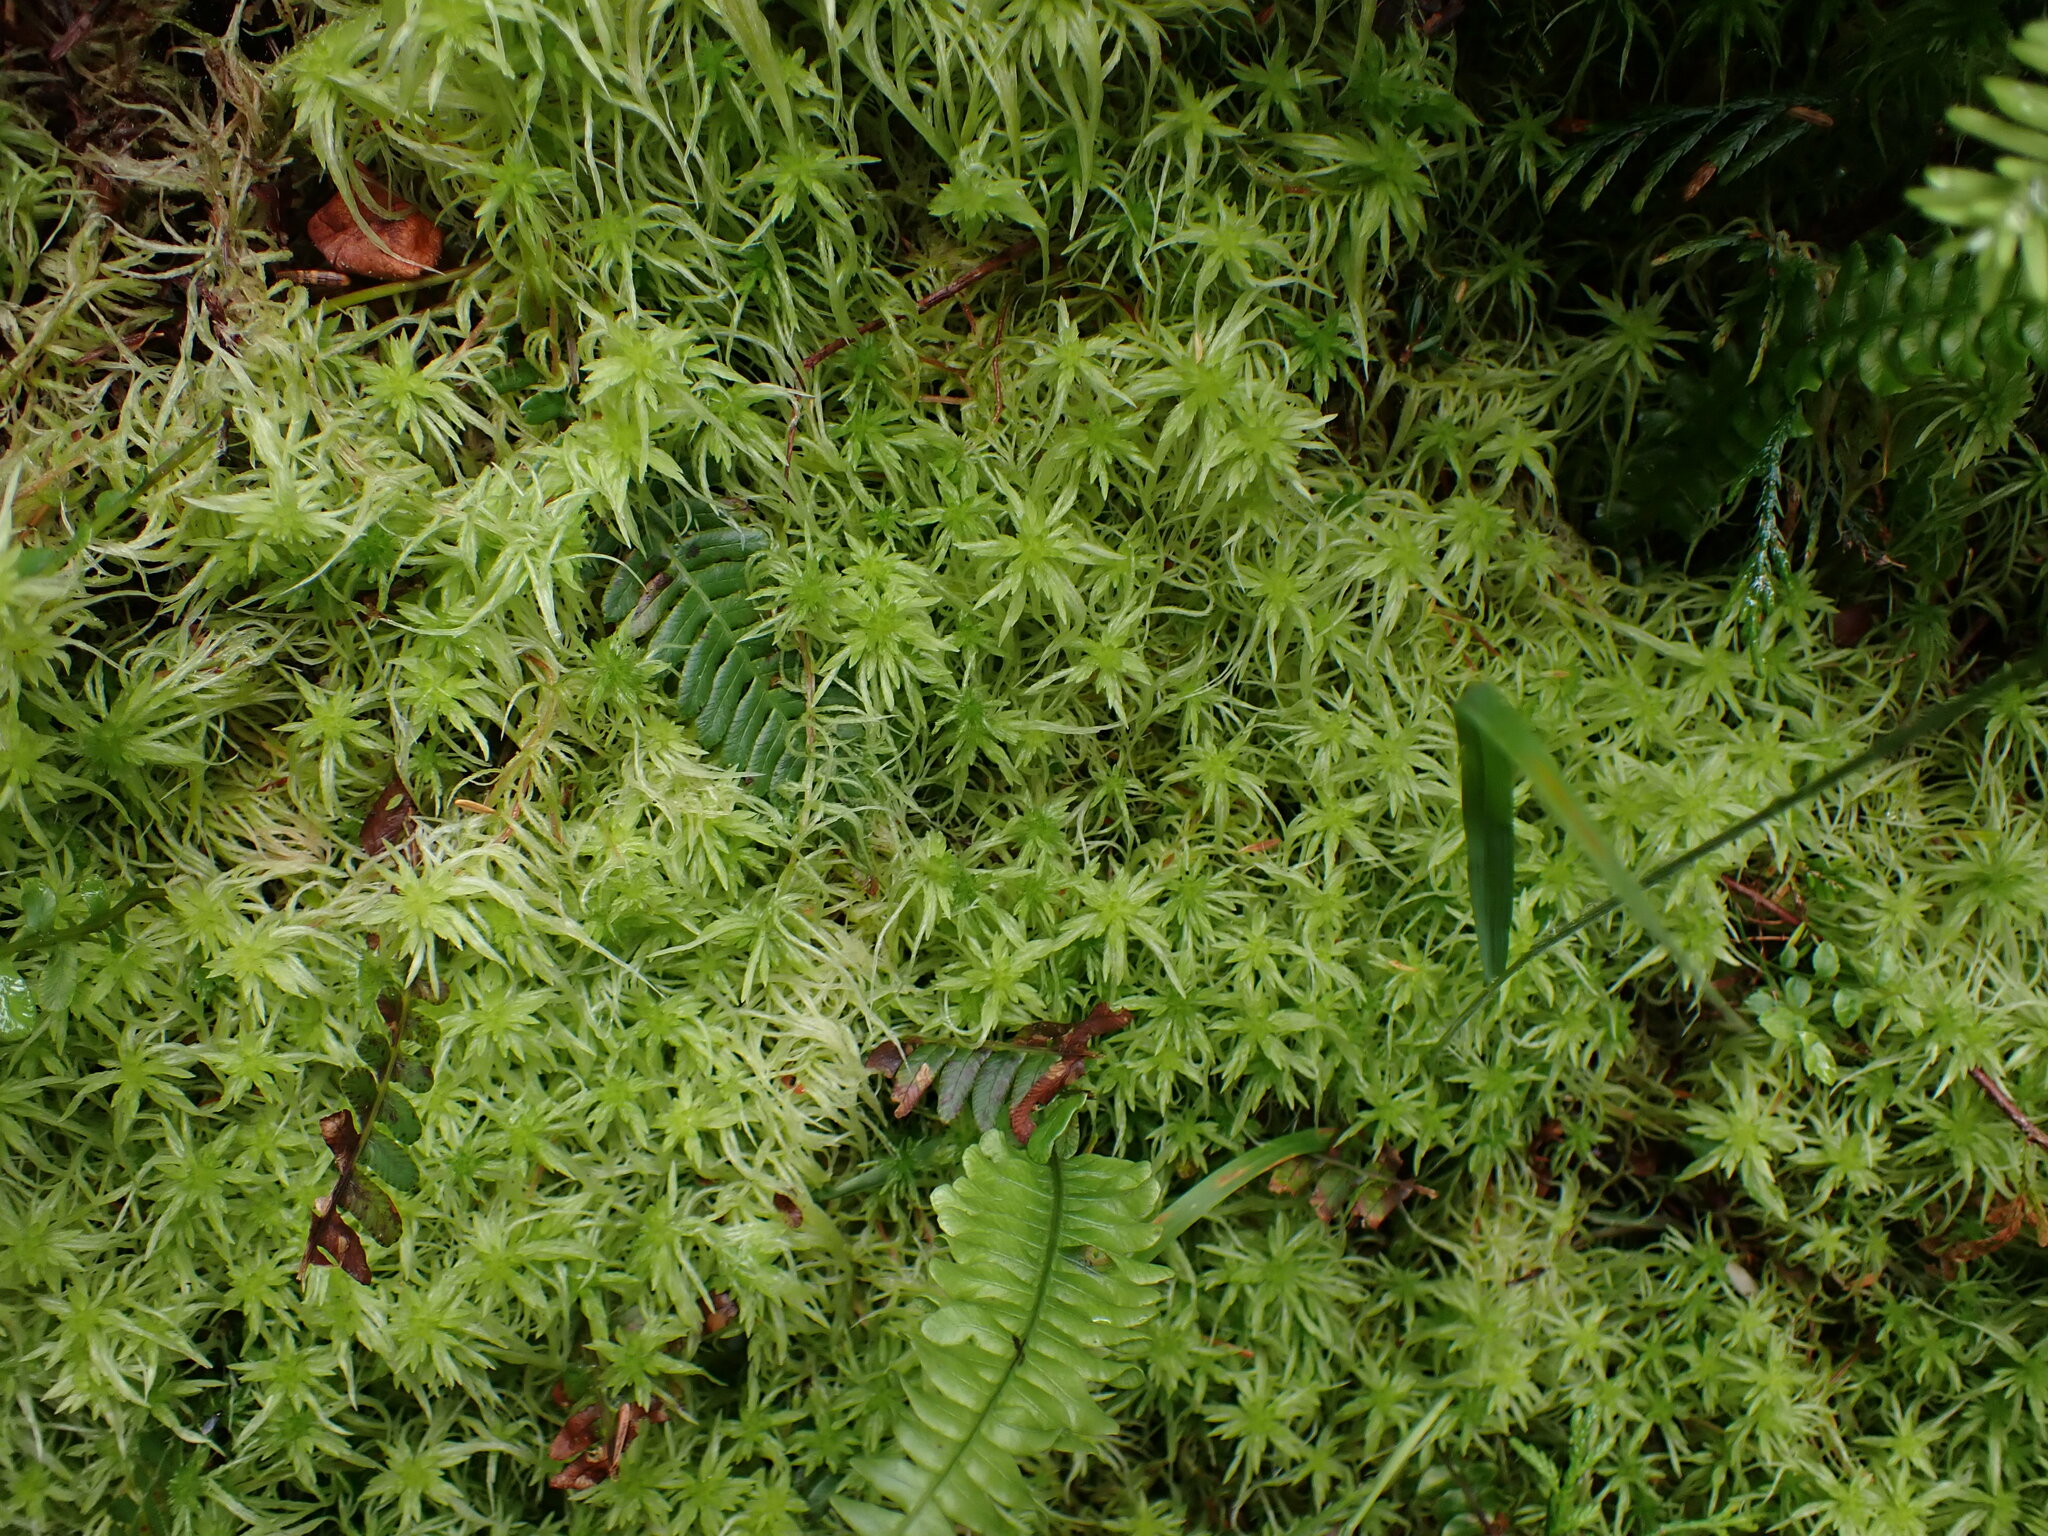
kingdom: Plantae
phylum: Bryophyta
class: Sphagnopsida
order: Sphagnales
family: Sphagnaceae
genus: Sphagnum
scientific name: Sphagnum rubiginosum
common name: Variegated peat moss
